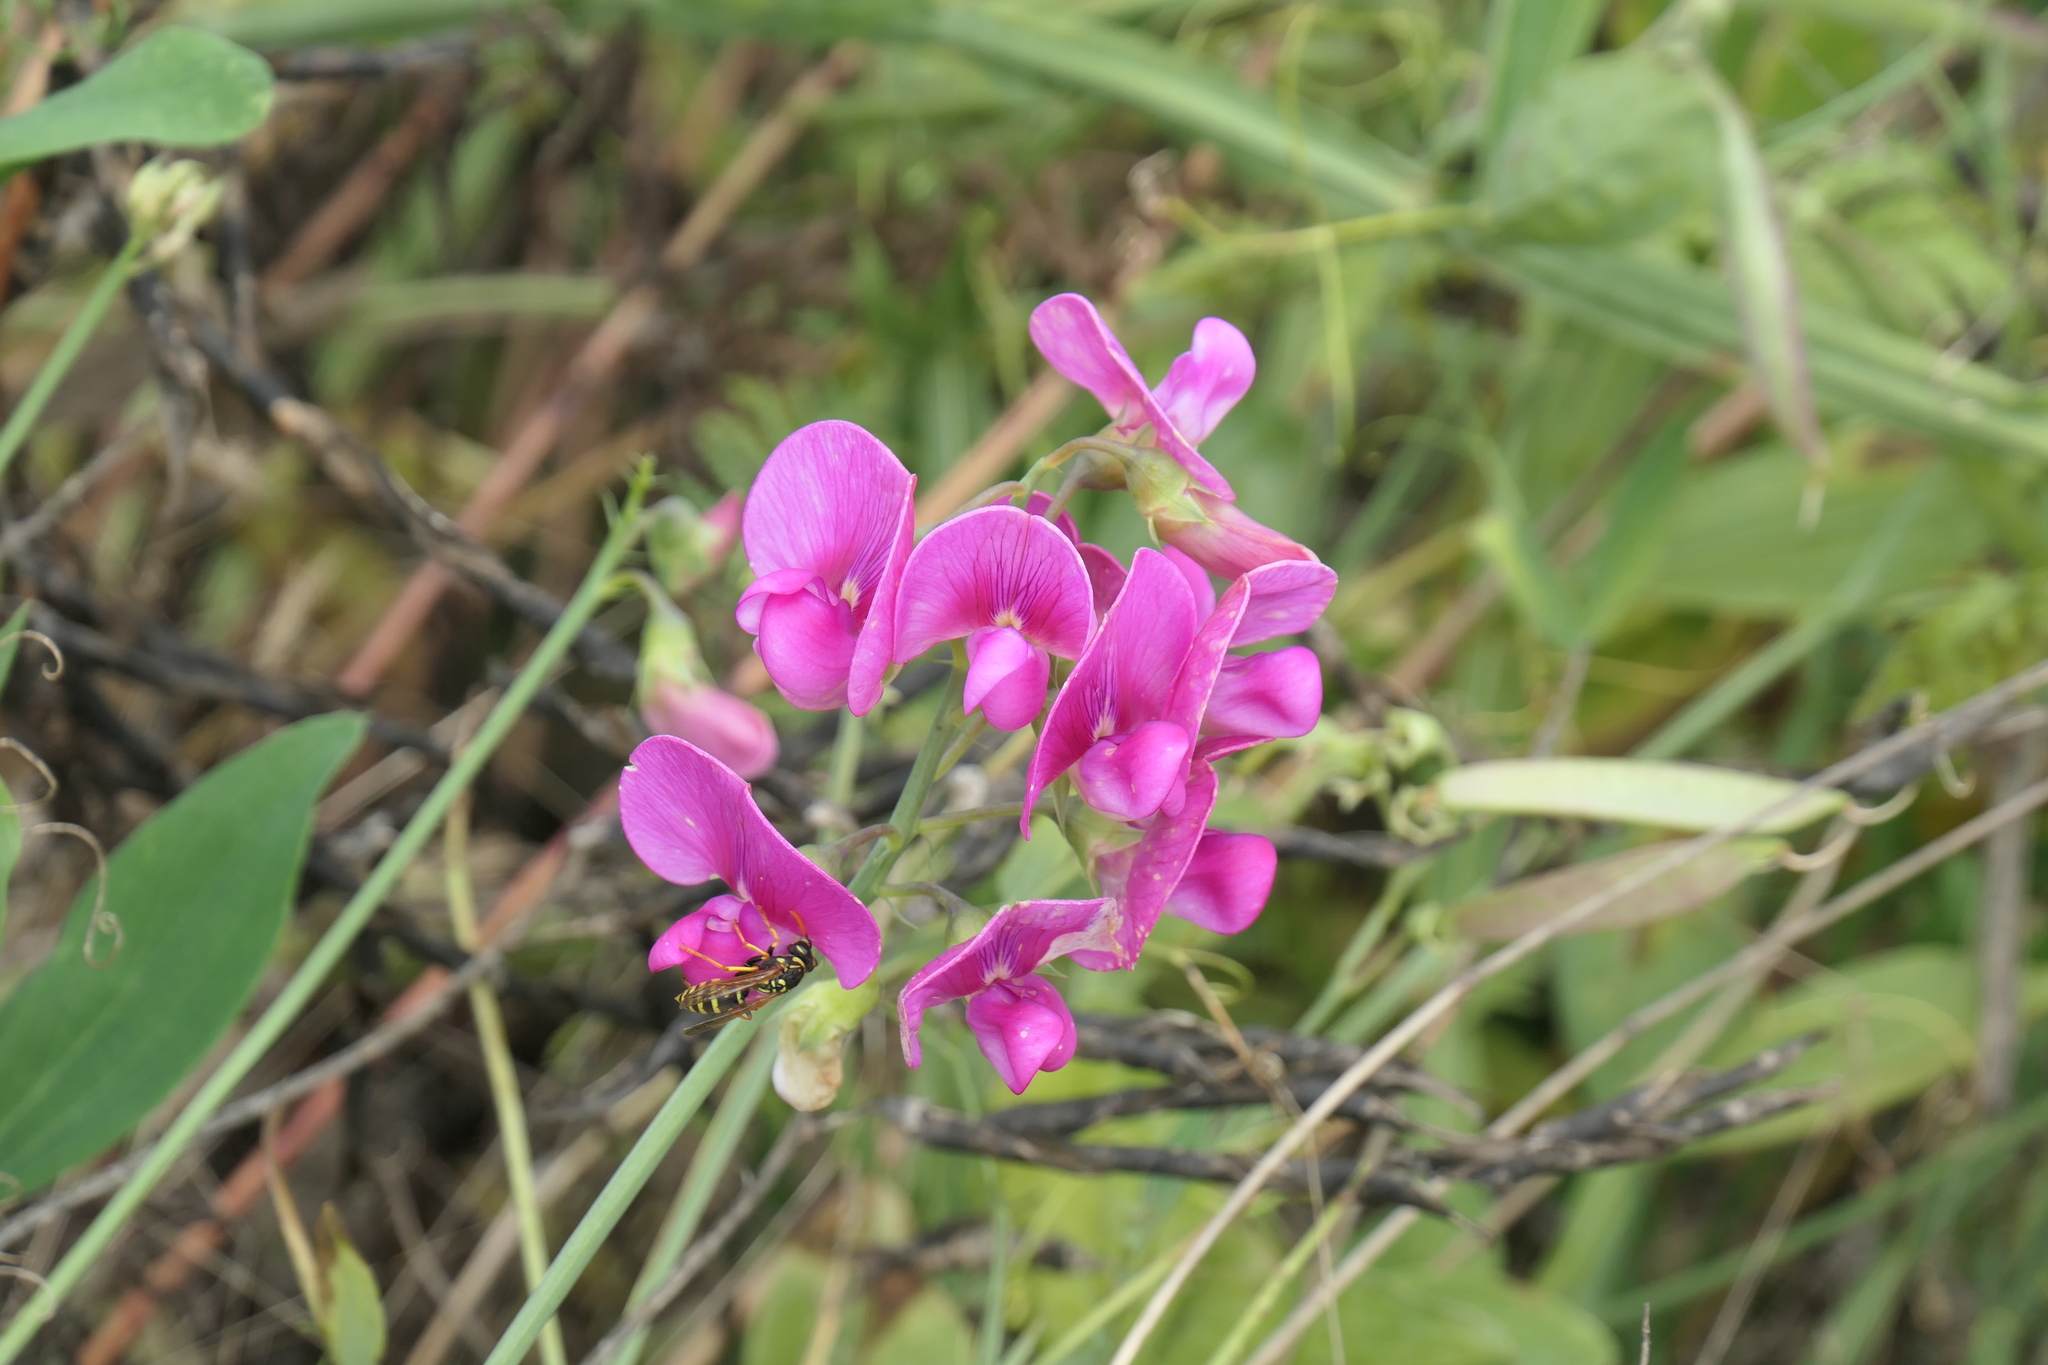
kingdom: Animalia
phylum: Arthropoda
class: Insecta
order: Hymenoptera
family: Eumenidae
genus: Polistes
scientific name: Polistes dominula
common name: Paper wasp
